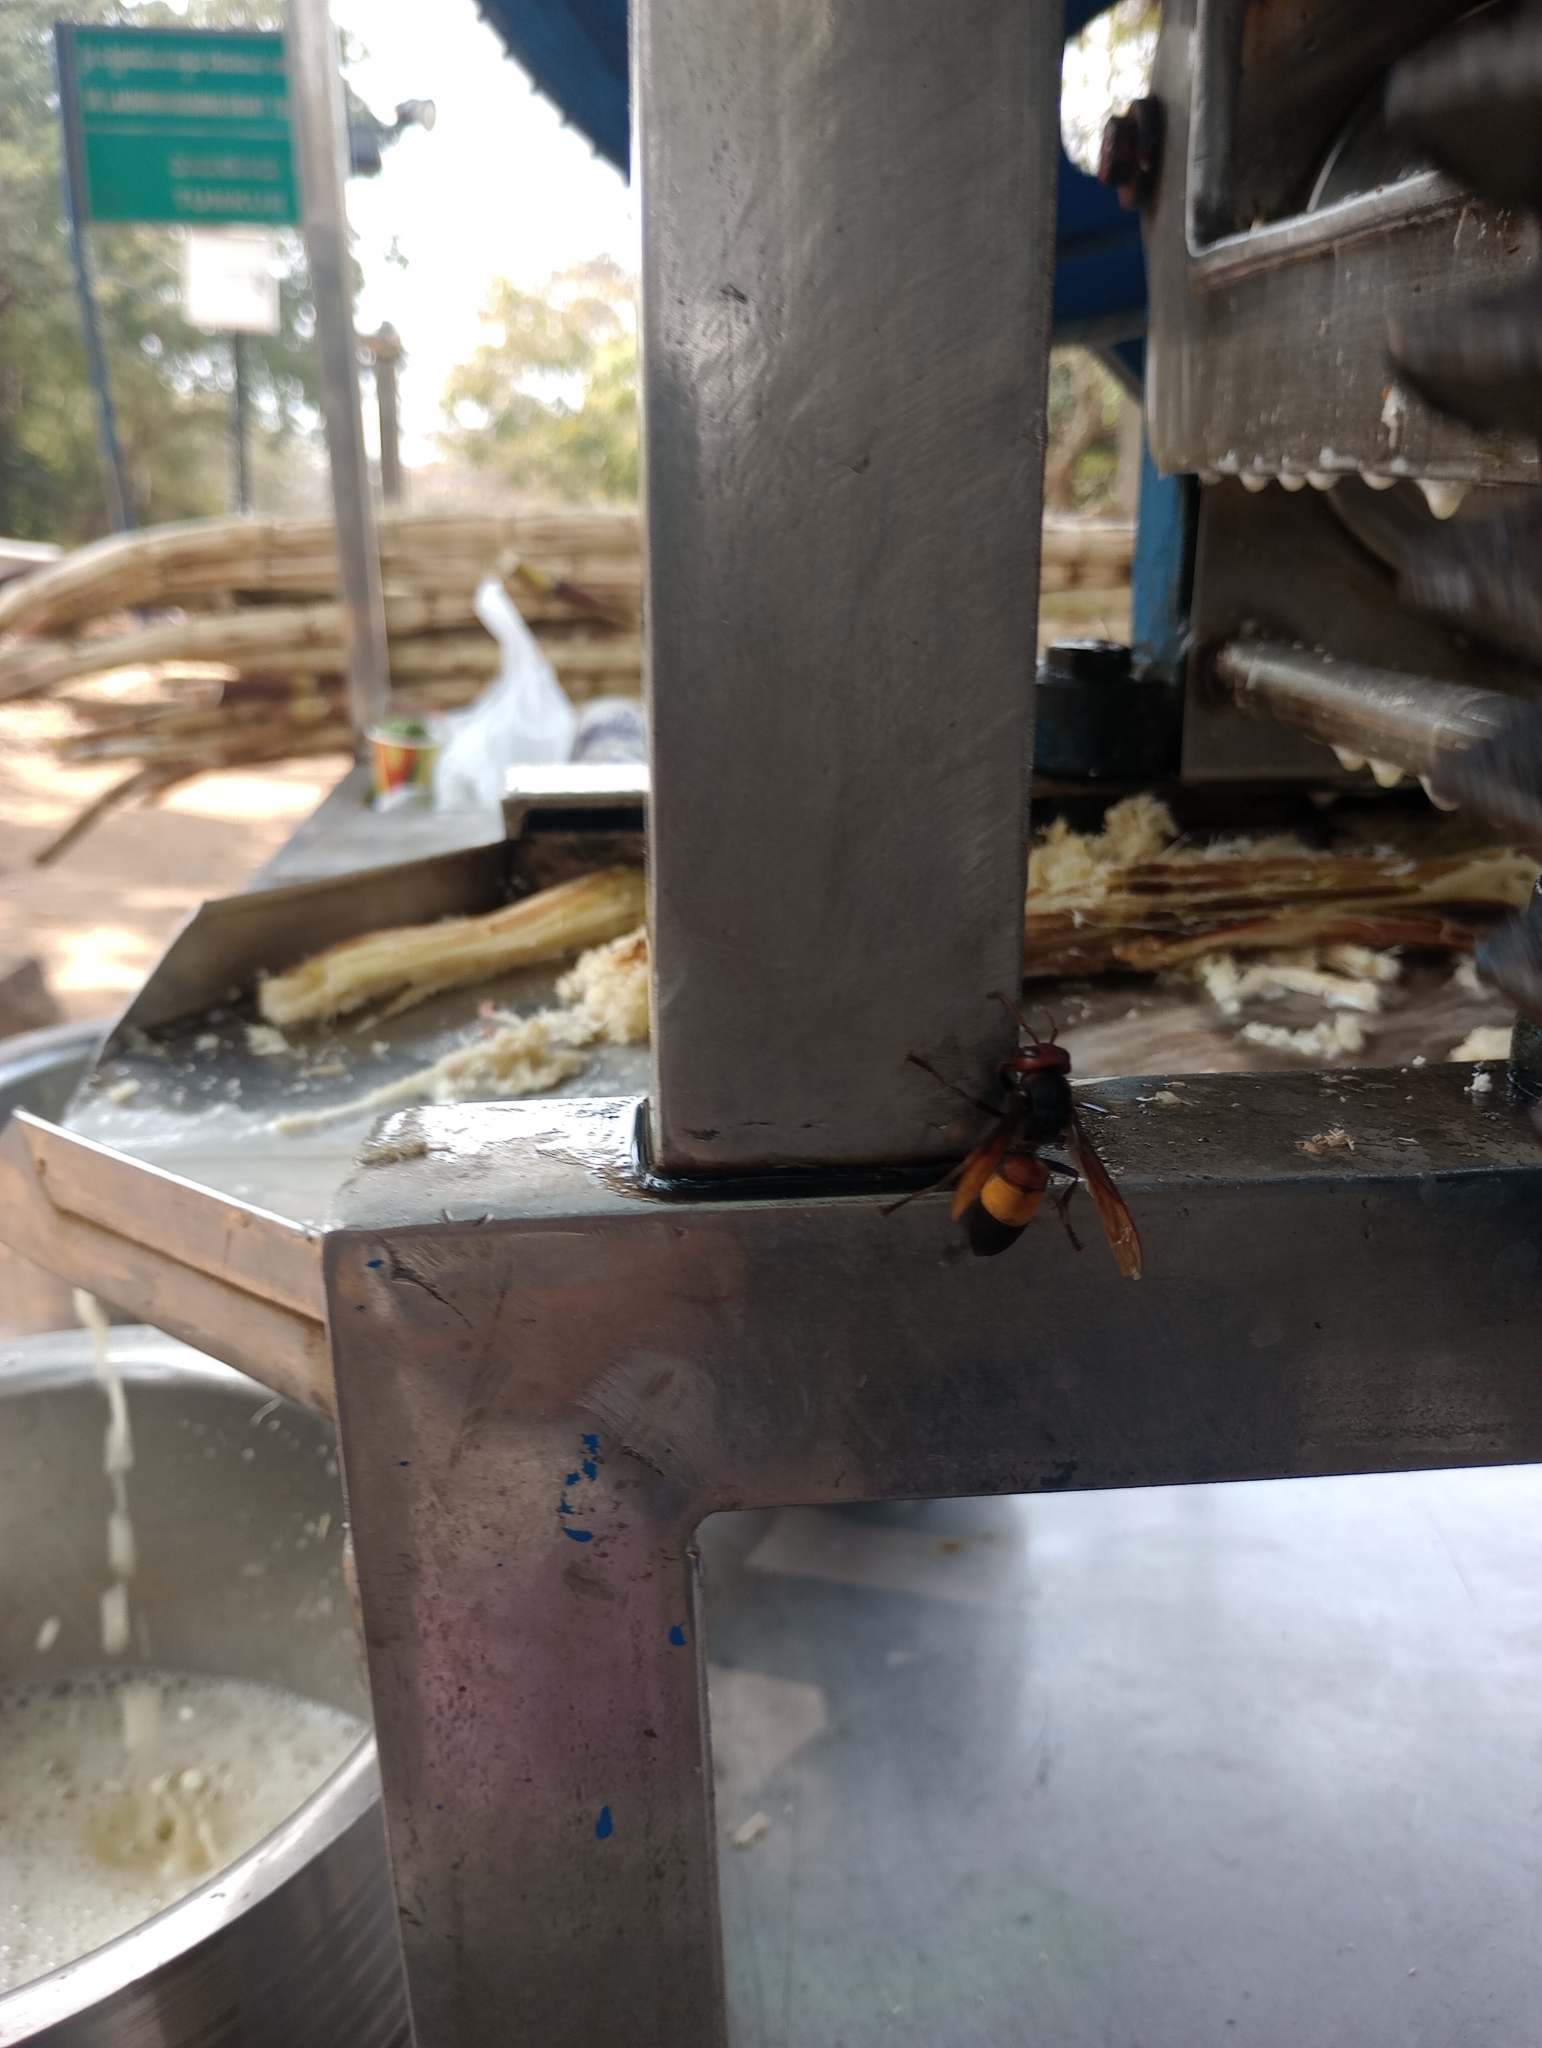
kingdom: Animalia
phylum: Arthropoda
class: Insecta
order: Hymenoptera
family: Vespidae
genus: Vespa
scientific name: Vespa tropica
